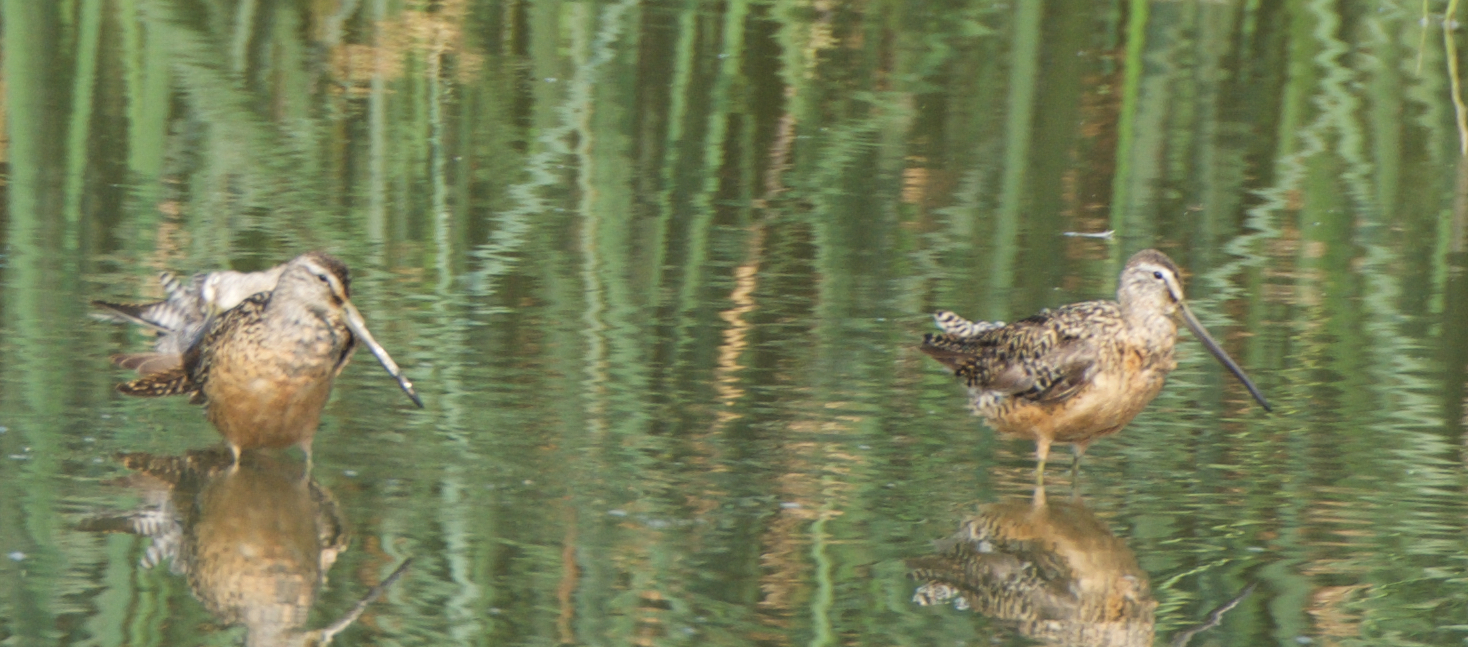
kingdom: Animalia
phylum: Chordata
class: Aves
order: Charadriiformes
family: Scolopacidae
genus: Limnodromus
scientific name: Limnodromus scolopaceus
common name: Long-billed dowitcher
